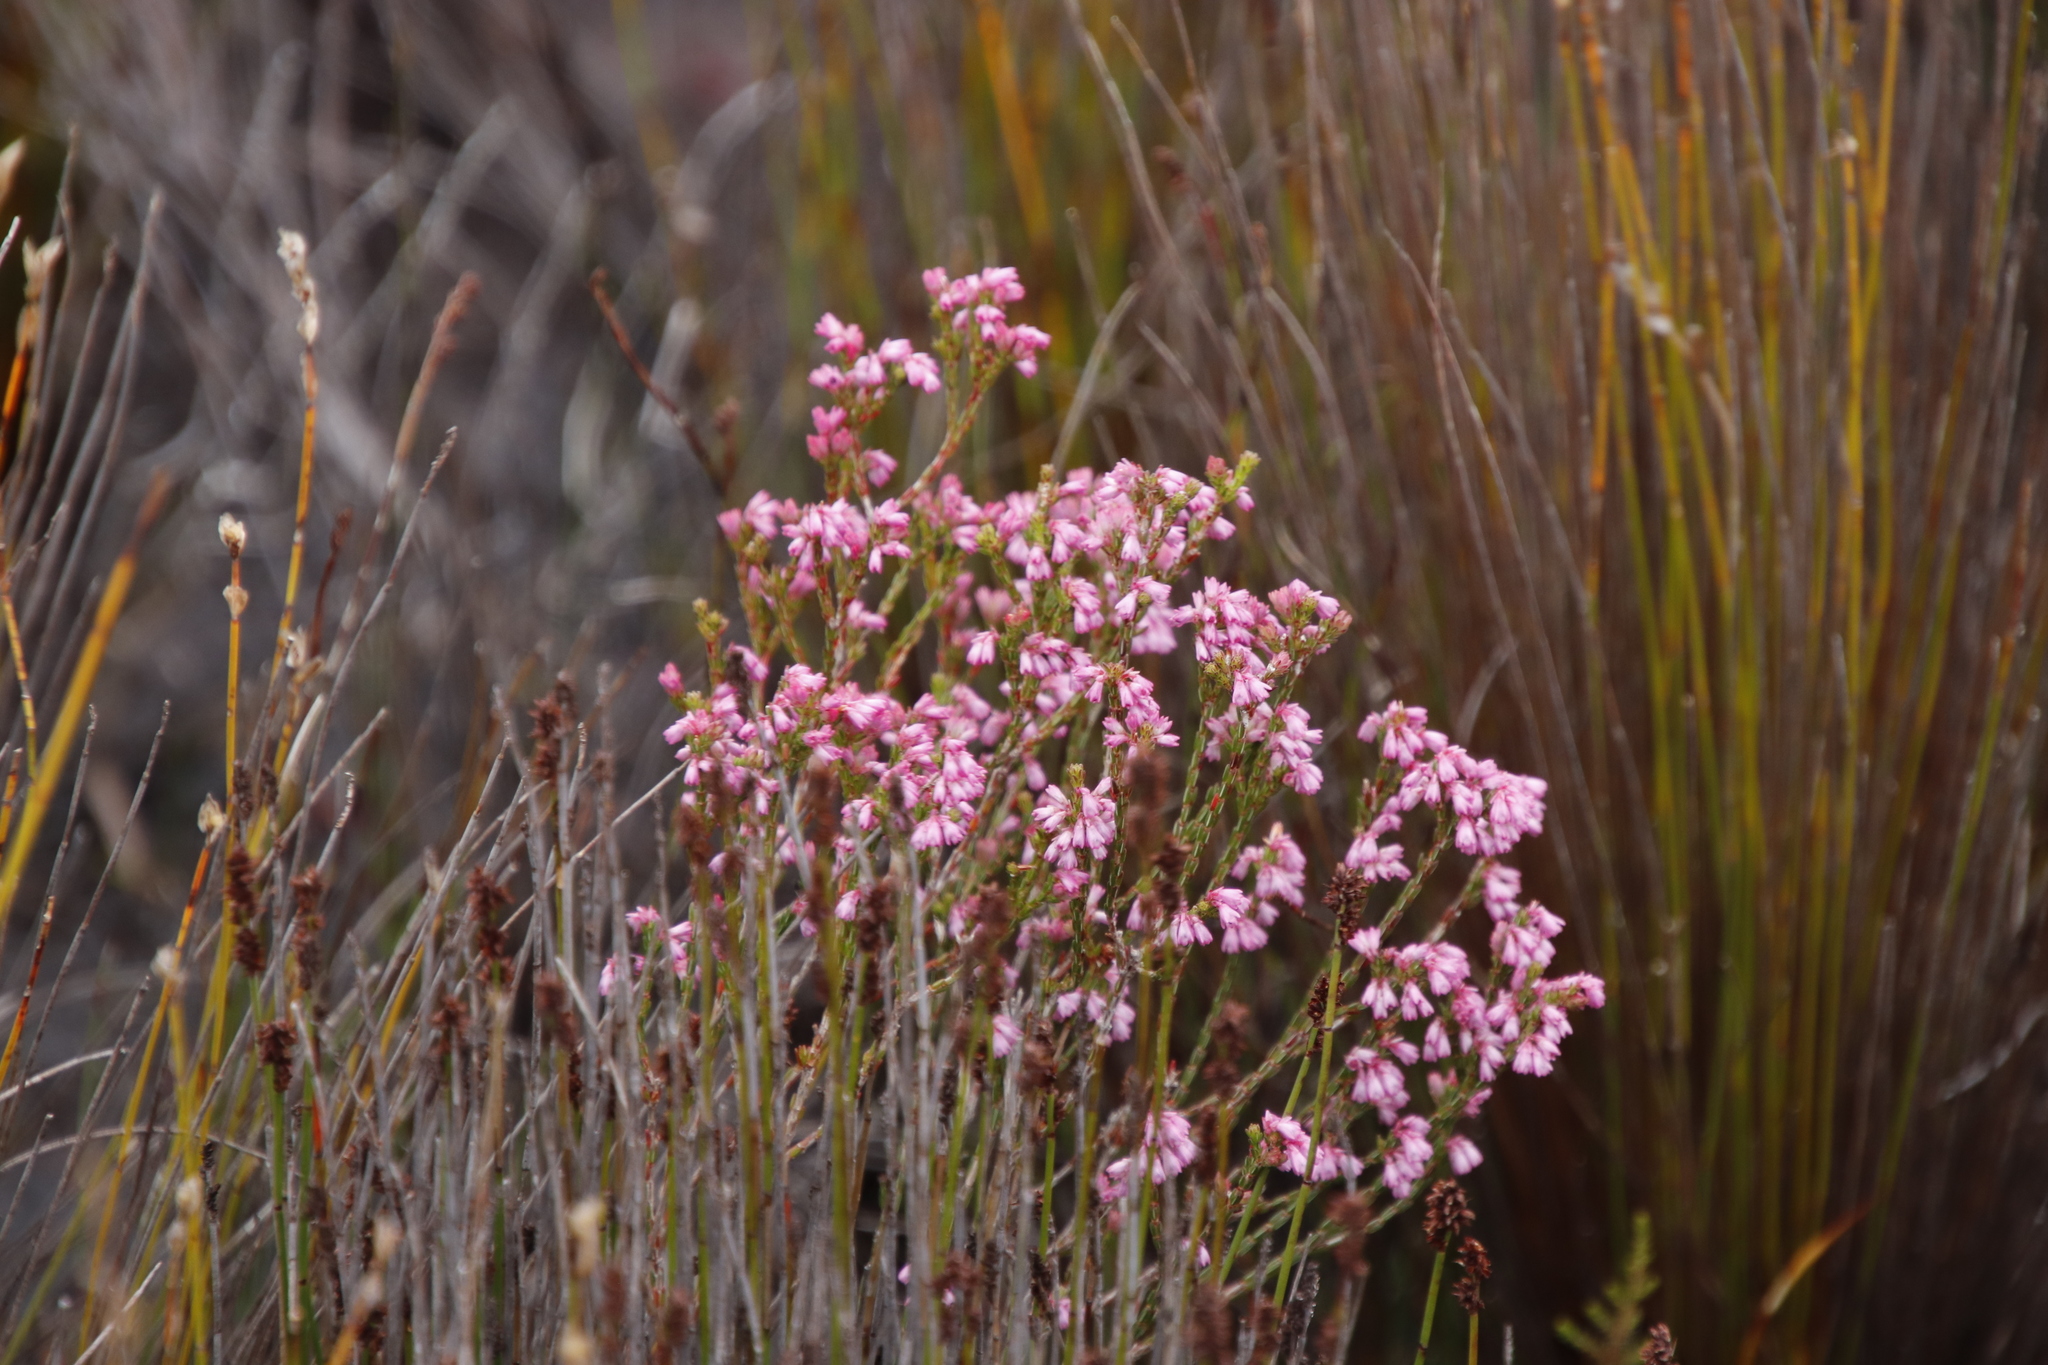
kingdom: Plantae
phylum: Tracheophyta
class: Magnoliopsida
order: Ericales
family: Ericaceae
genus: Erica
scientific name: Erica gnaphaloides
